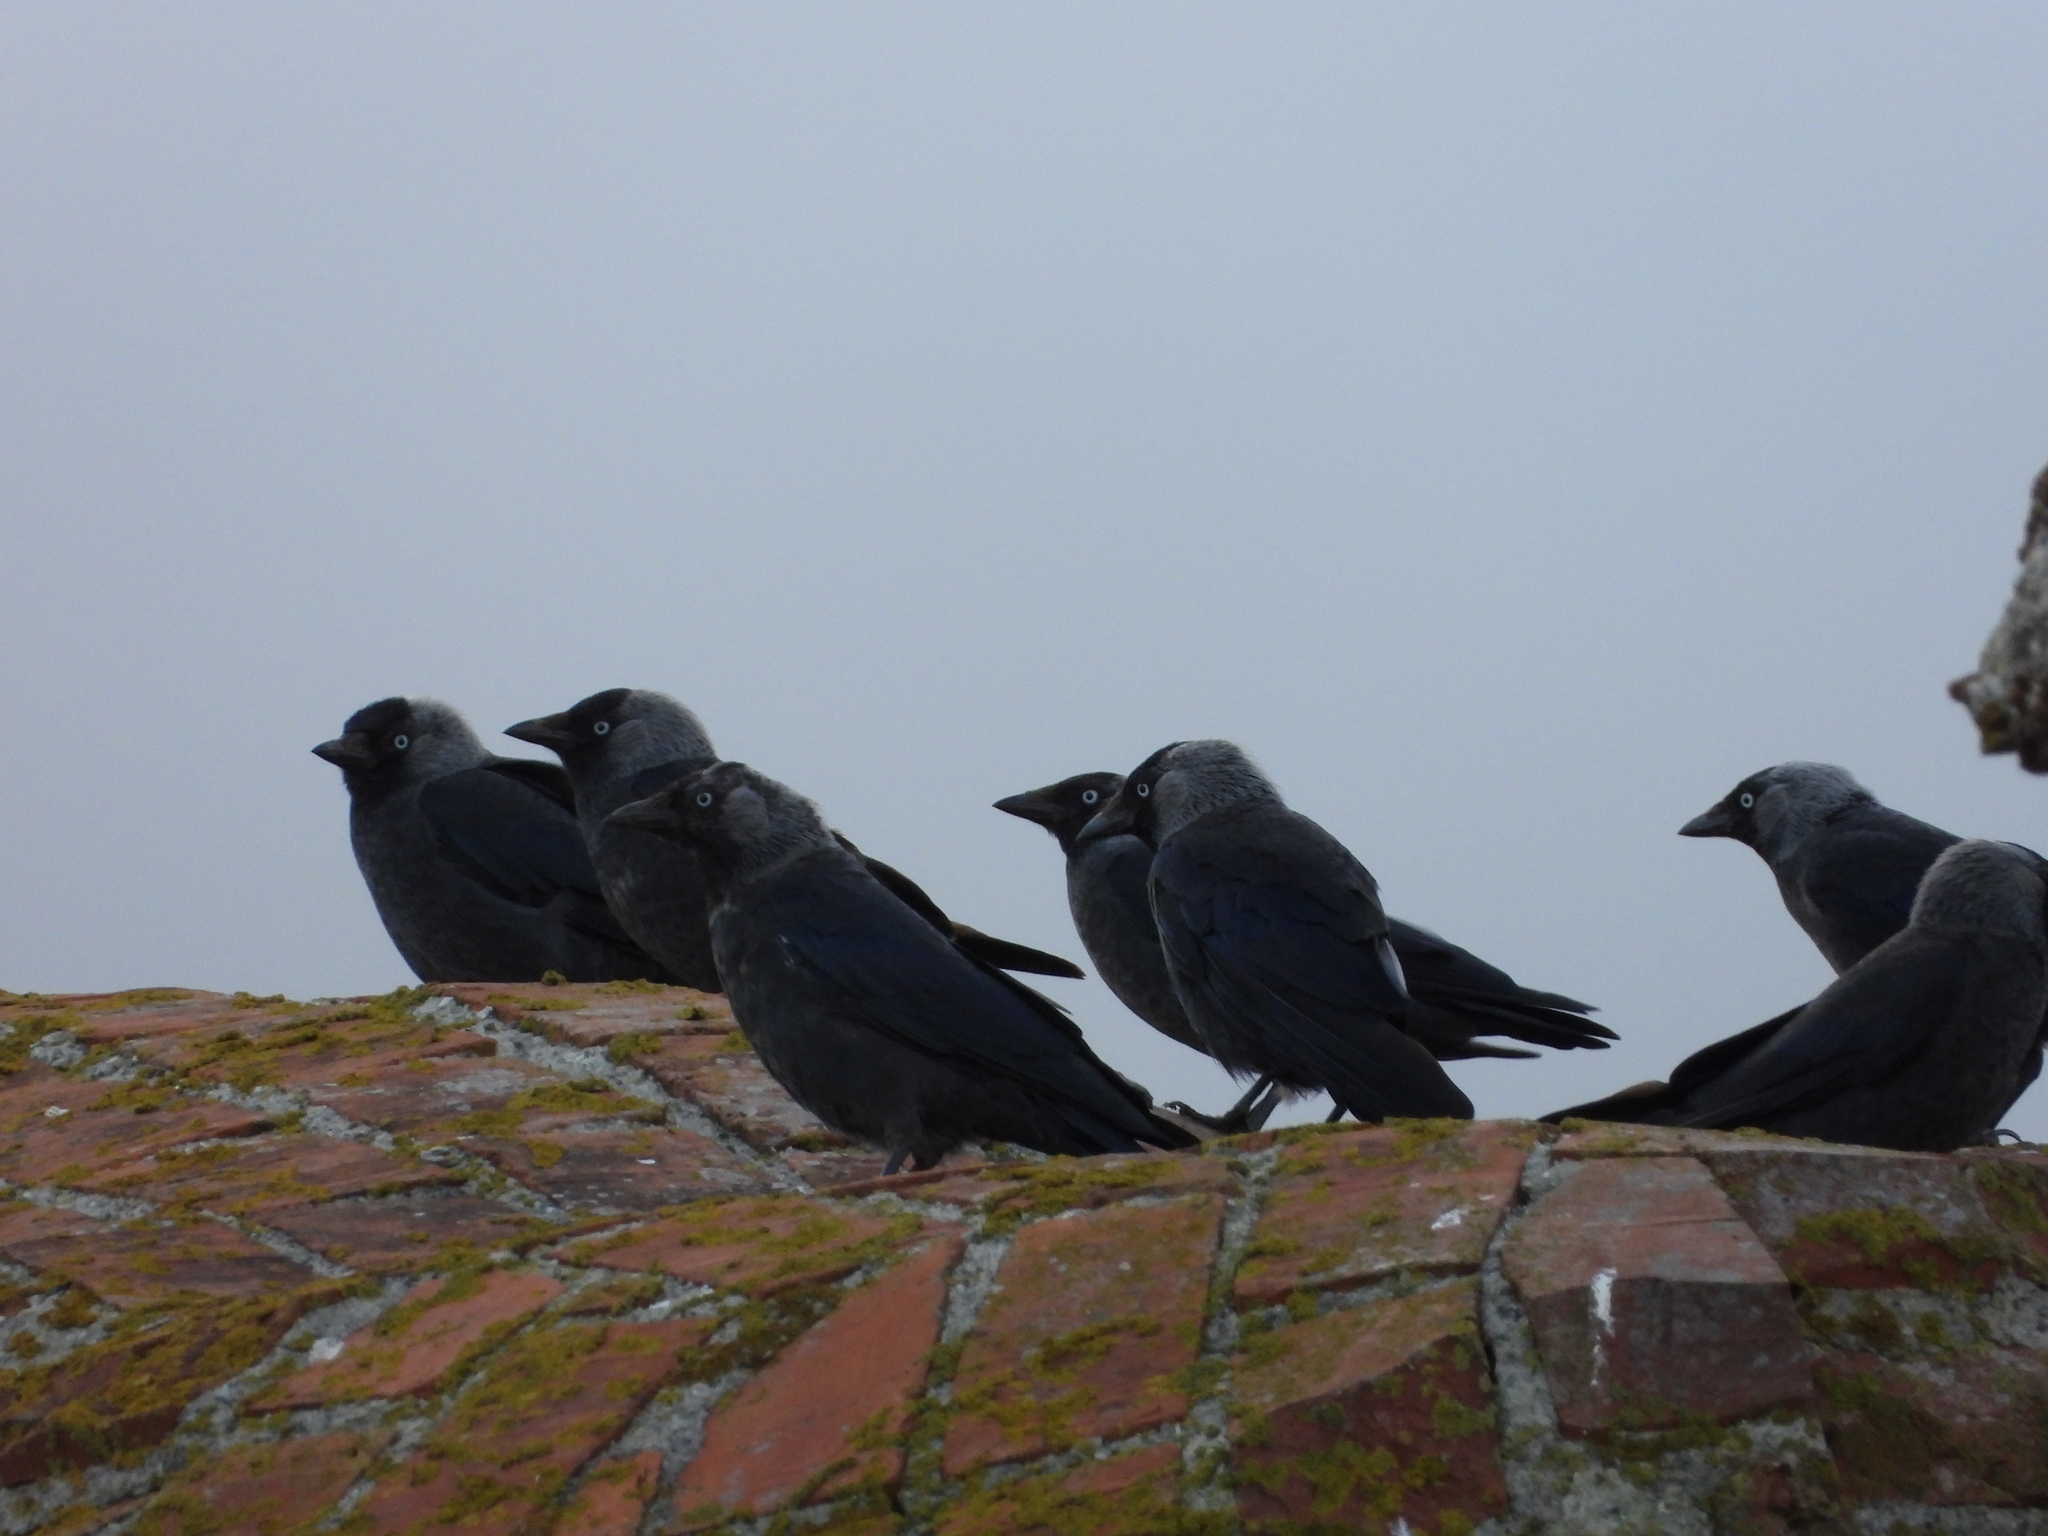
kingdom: Animalia
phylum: Chordata
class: Aves
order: Passeriformes
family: Corvidae
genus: Coloeus
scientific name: Coloeus monedula
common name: Western jackdaw
